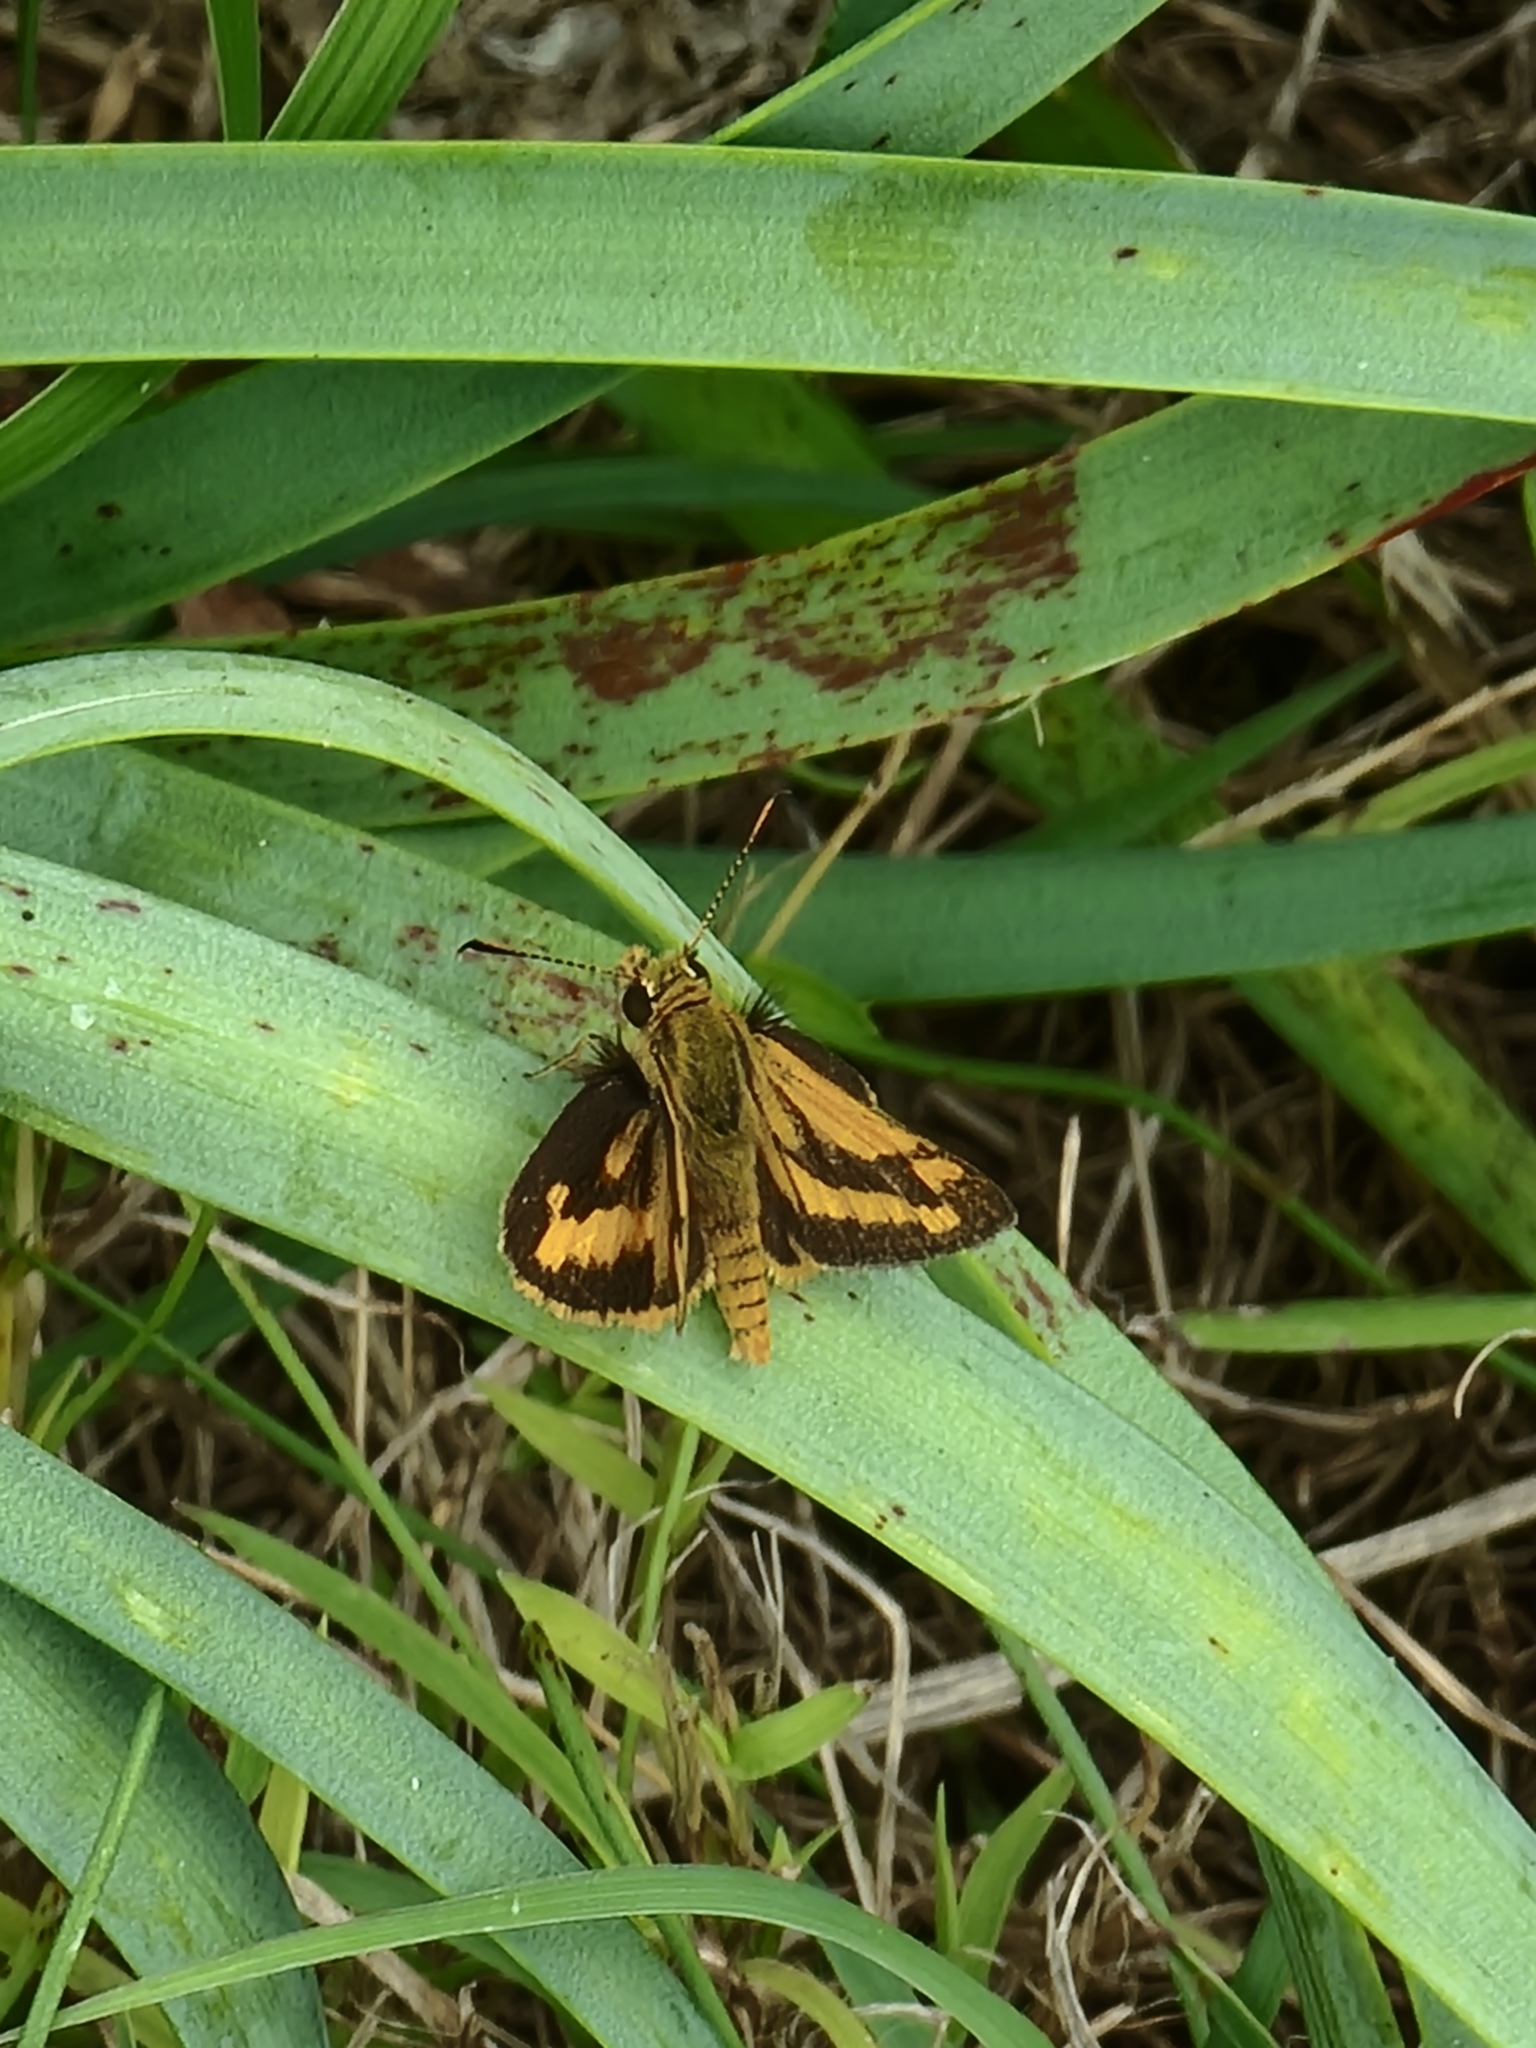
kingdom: Animalia
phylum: Arthropoda
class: Insecta
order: Lepidoptera
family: Hesperiidae
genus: Suniana
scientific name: Suniana sunias
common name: Wide-brand grass-dart
